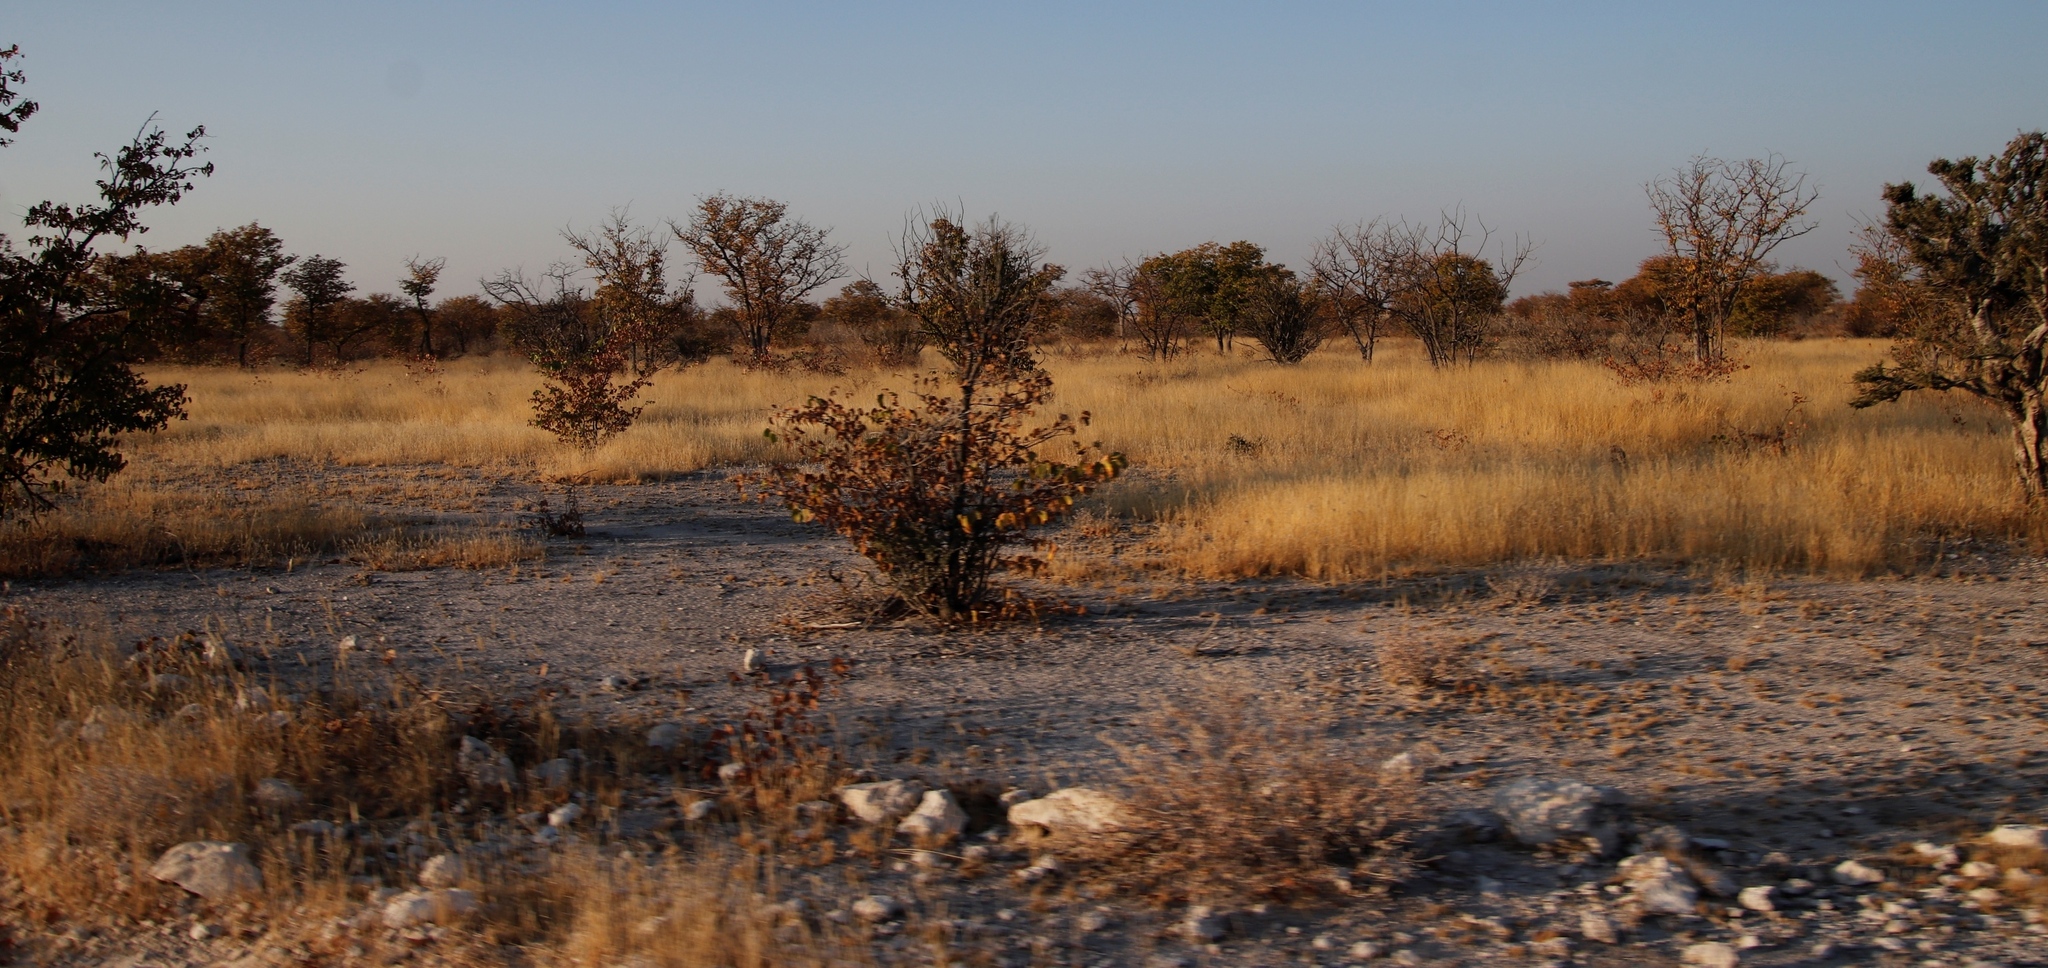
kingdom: Plantae
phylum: Tracheophyta
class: Magnoliopsida
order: Fabales
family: Fabaceae
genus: Colophospermum
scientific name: Colophospermum mopane
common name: Mopane
